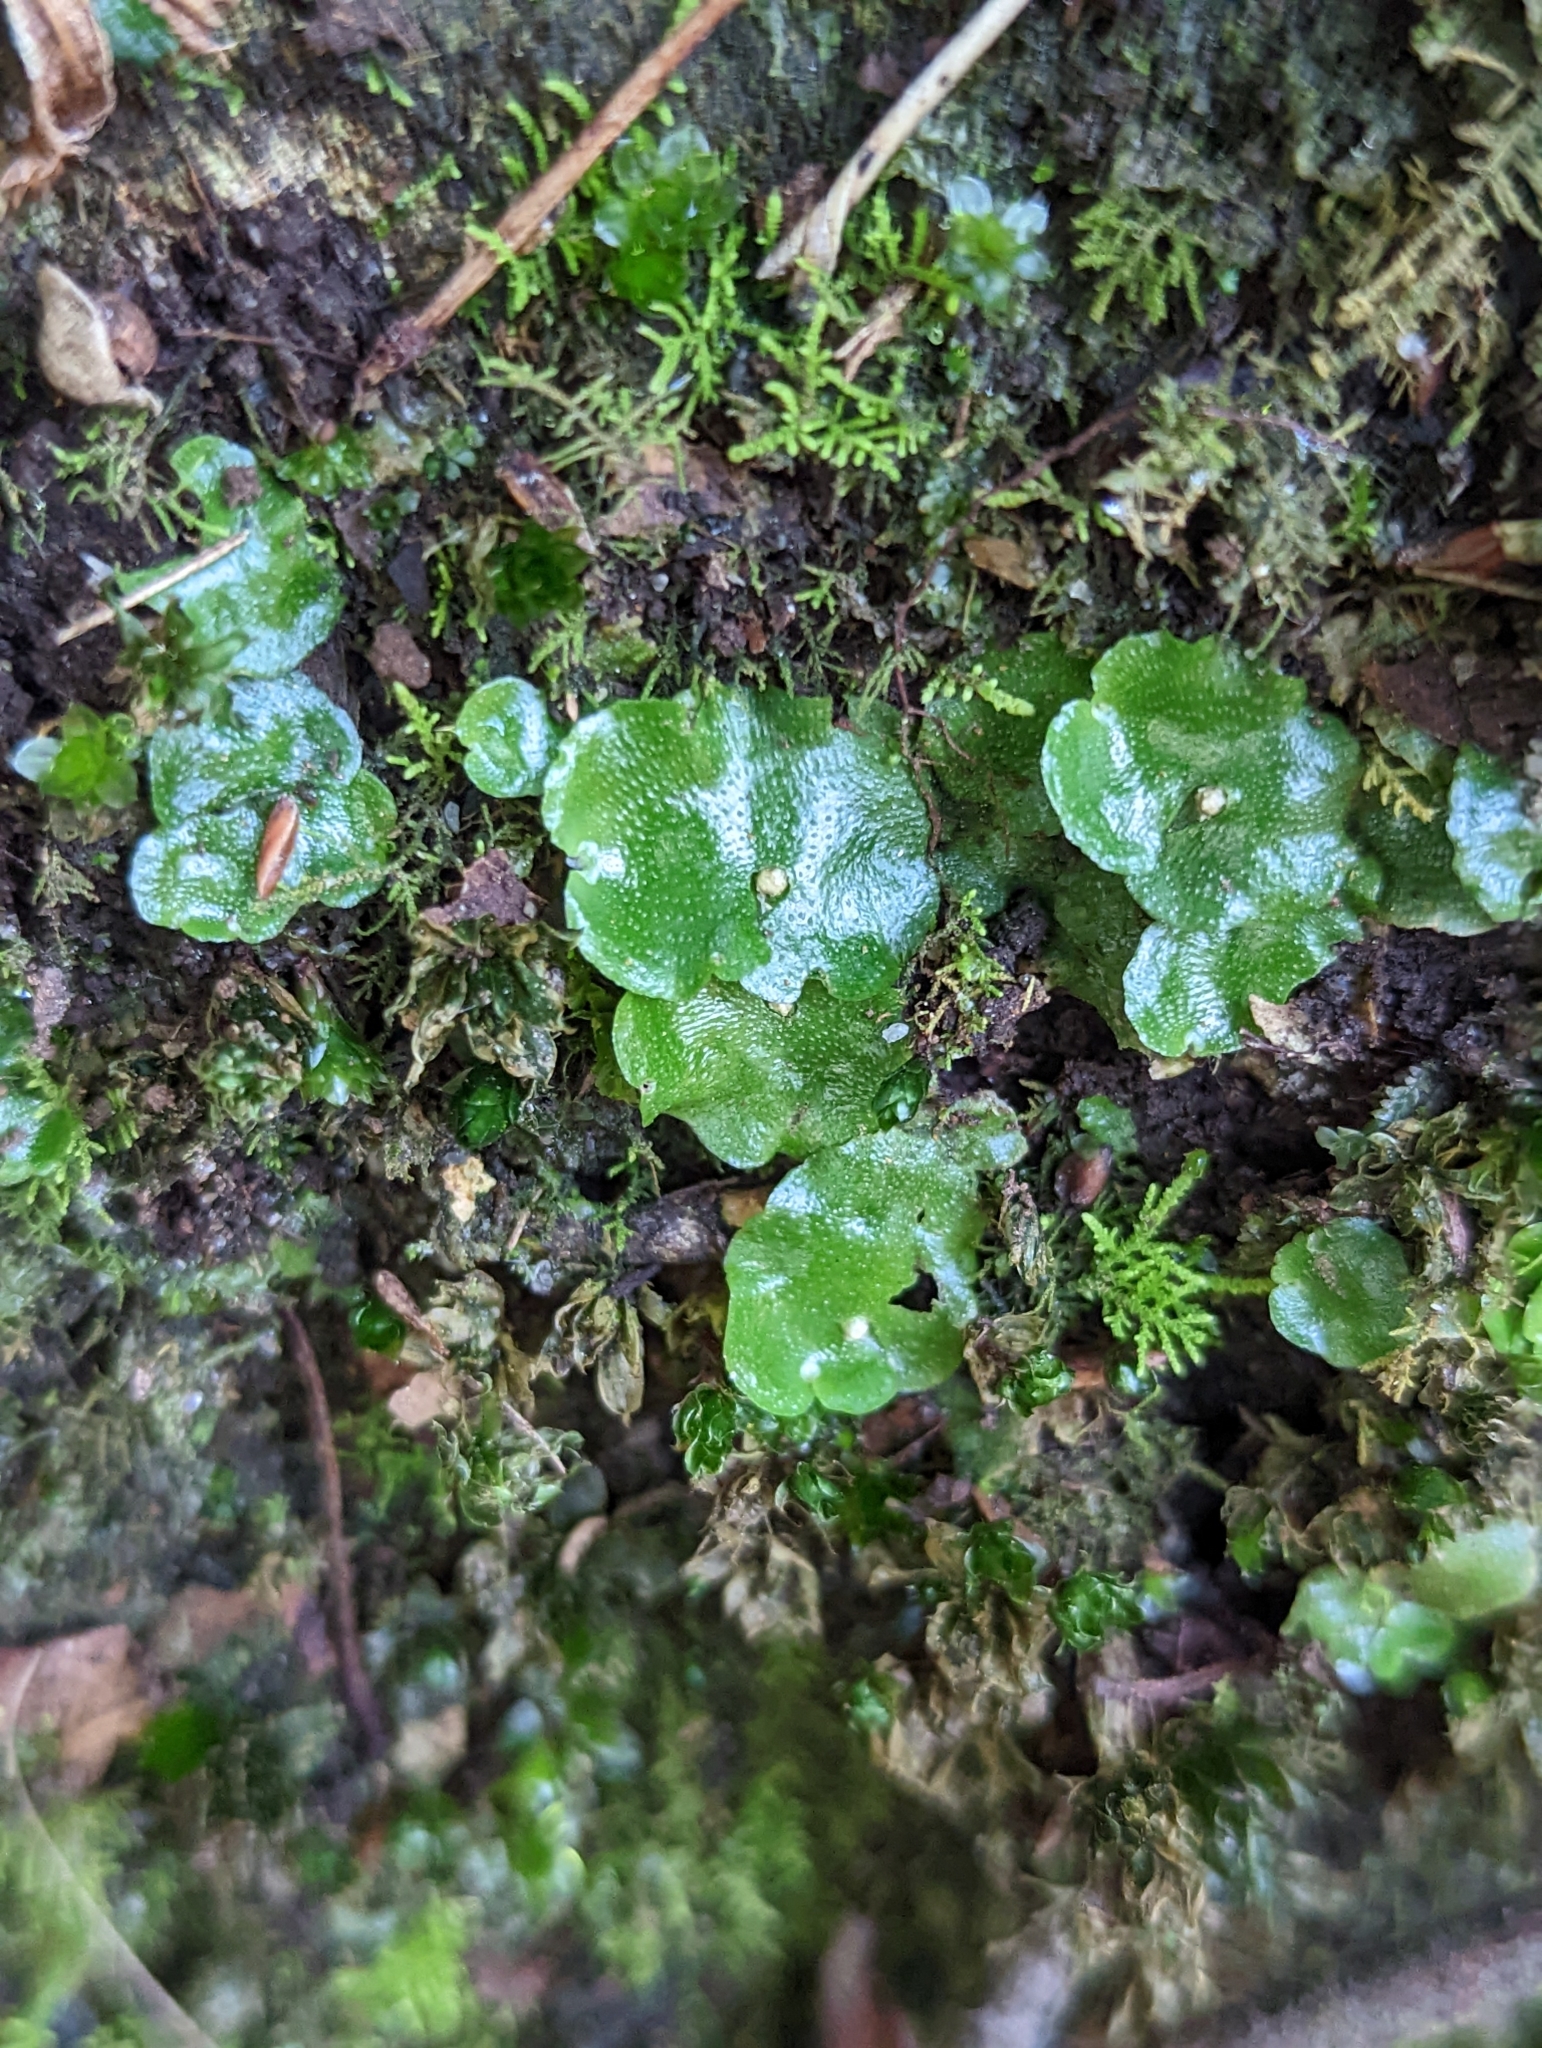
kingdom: Plantae
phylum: Marchantiophyta
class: Marchantiopsida
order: Lunulariales
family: Lunulariaceae
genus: Lunularia
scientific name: Lunularia cruciata
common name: Crescent-cup liverwort
